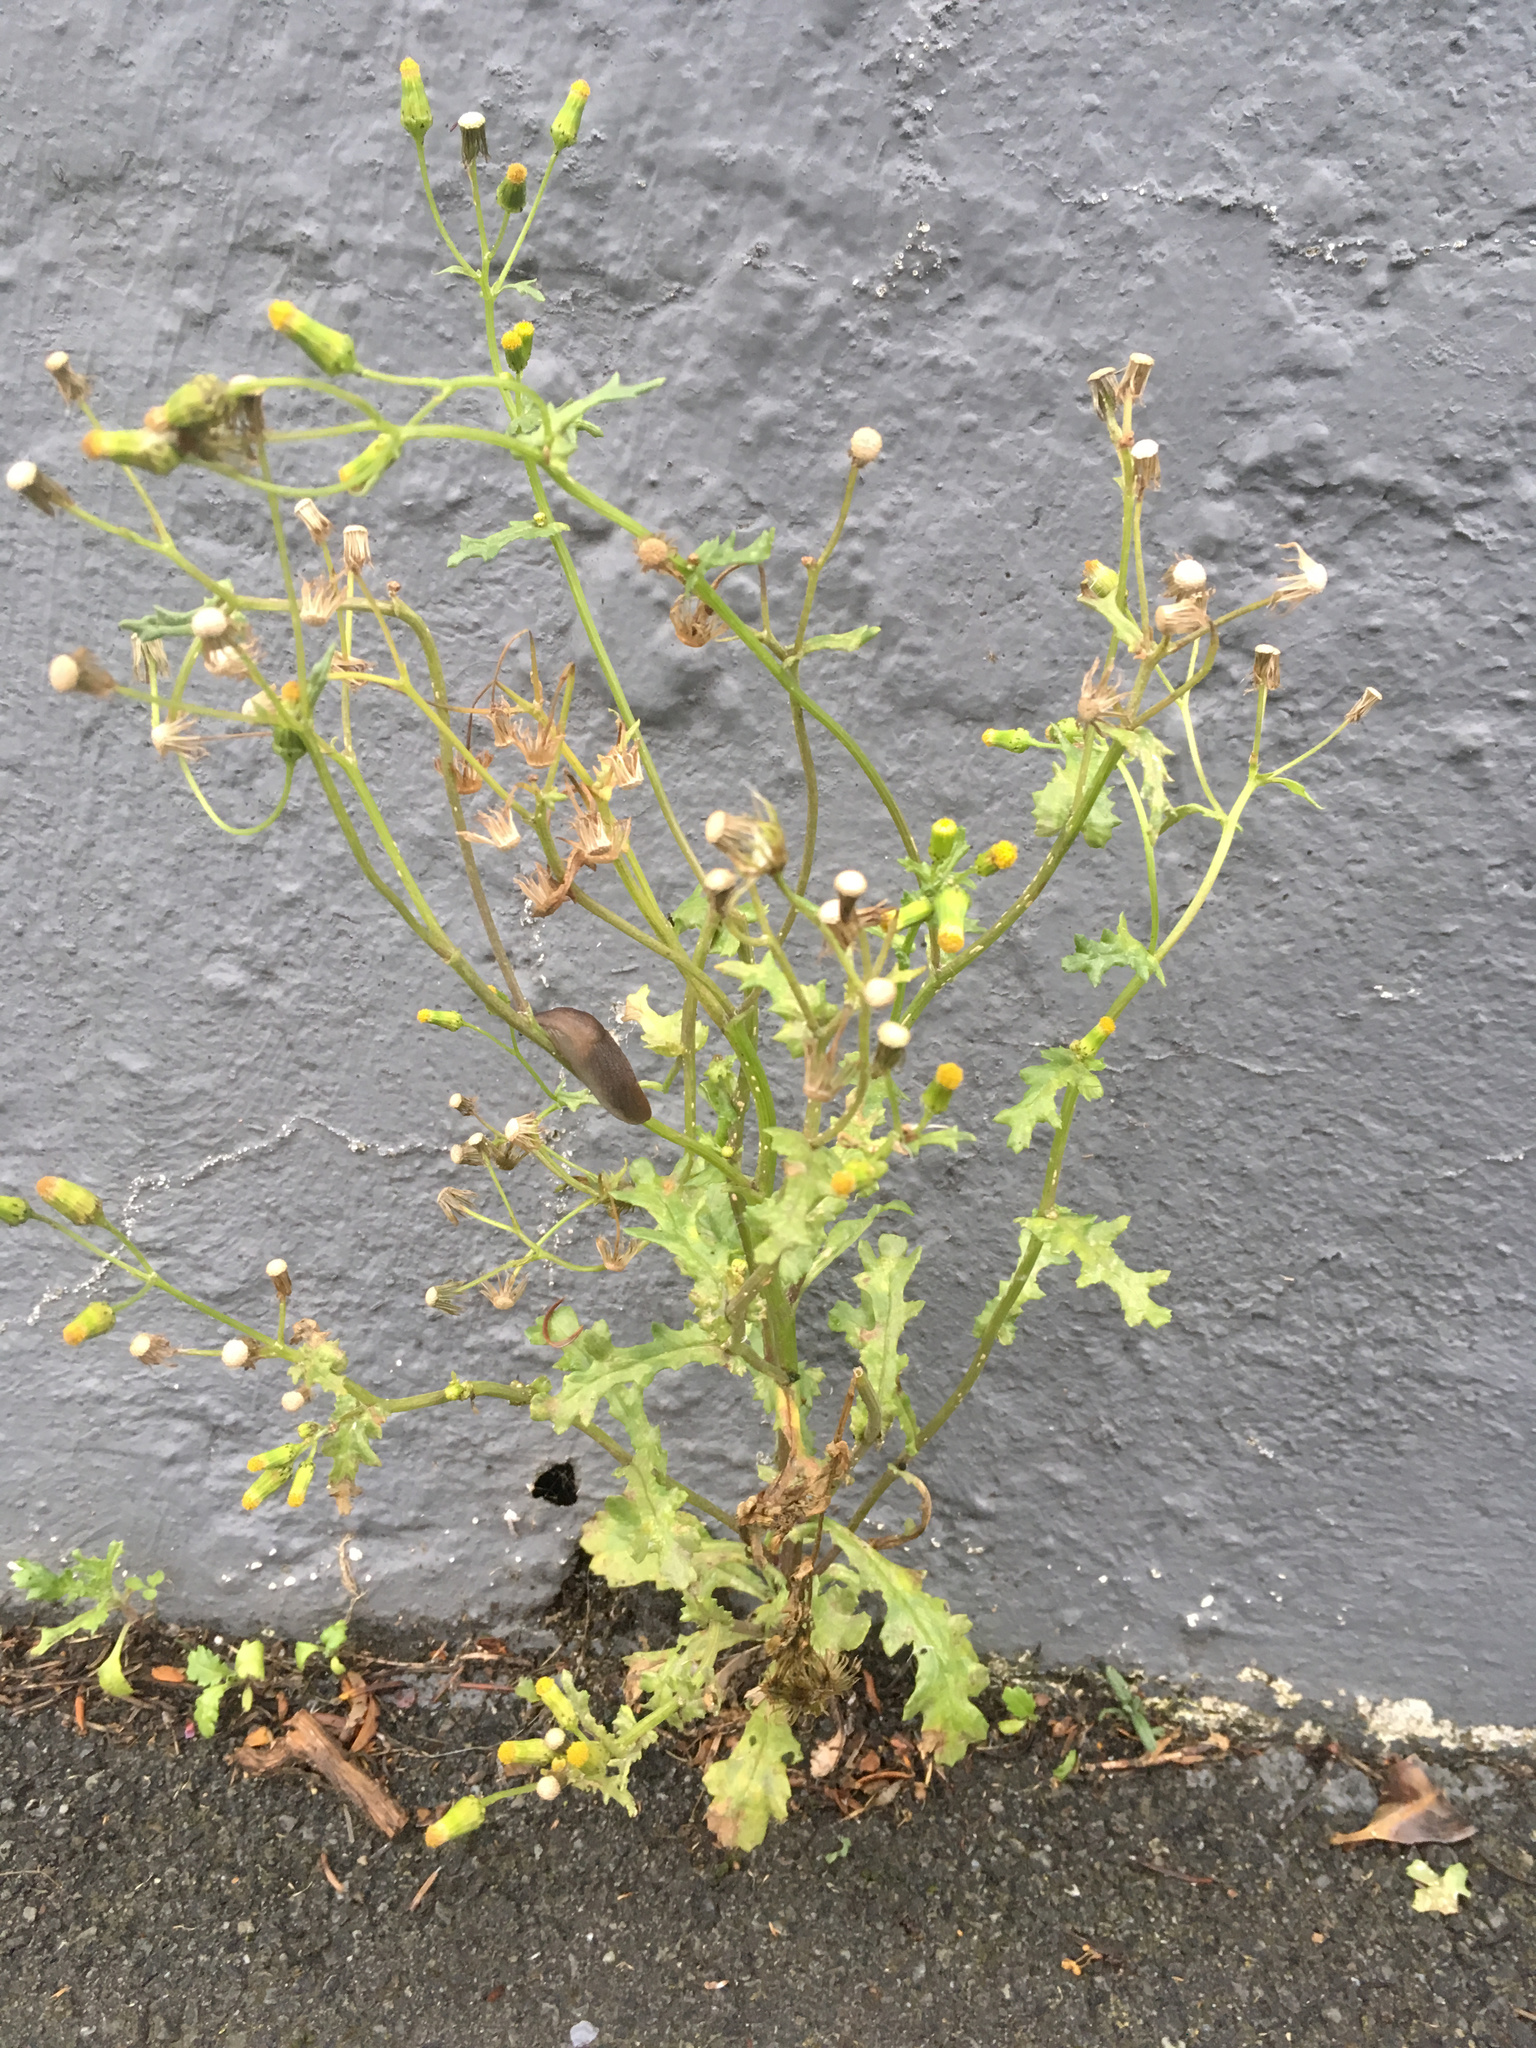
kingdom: Plantae
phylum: Tracheophyta
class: Magnoliopsida
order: Asterales
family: Asteraceae
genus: Senecio
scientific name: Senecio vulgaris
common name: Old-man-in-the-spring
